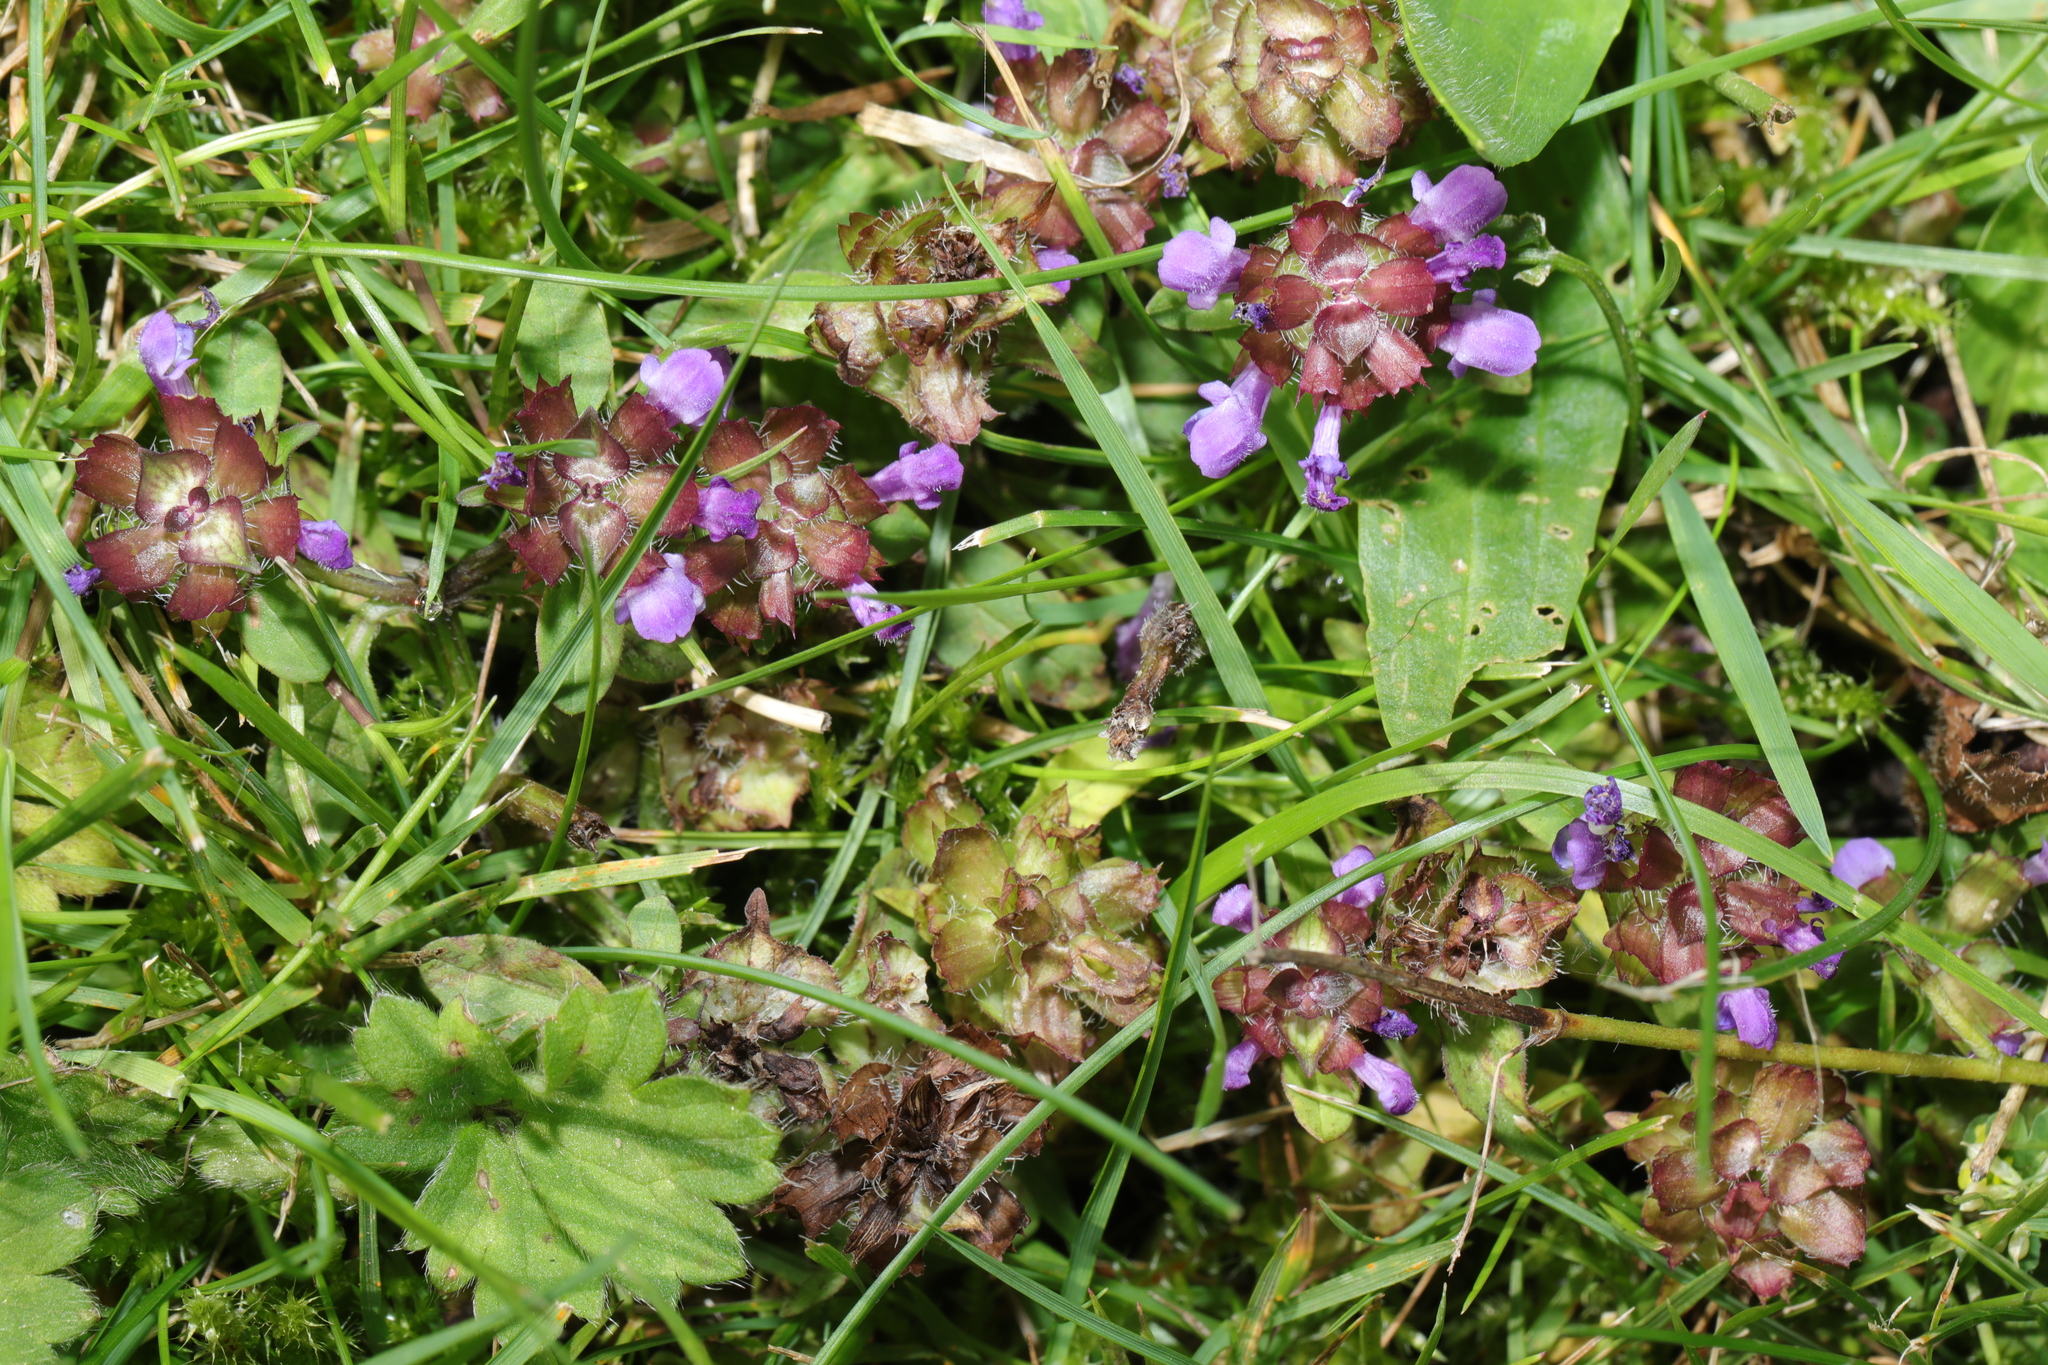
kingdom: Plantae
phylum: Tracheophyta
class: Magnoliopsida
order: Lamiales
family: Lamiaceae
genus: Prunella
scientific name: Prunella vulgaris
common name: Heal-all
